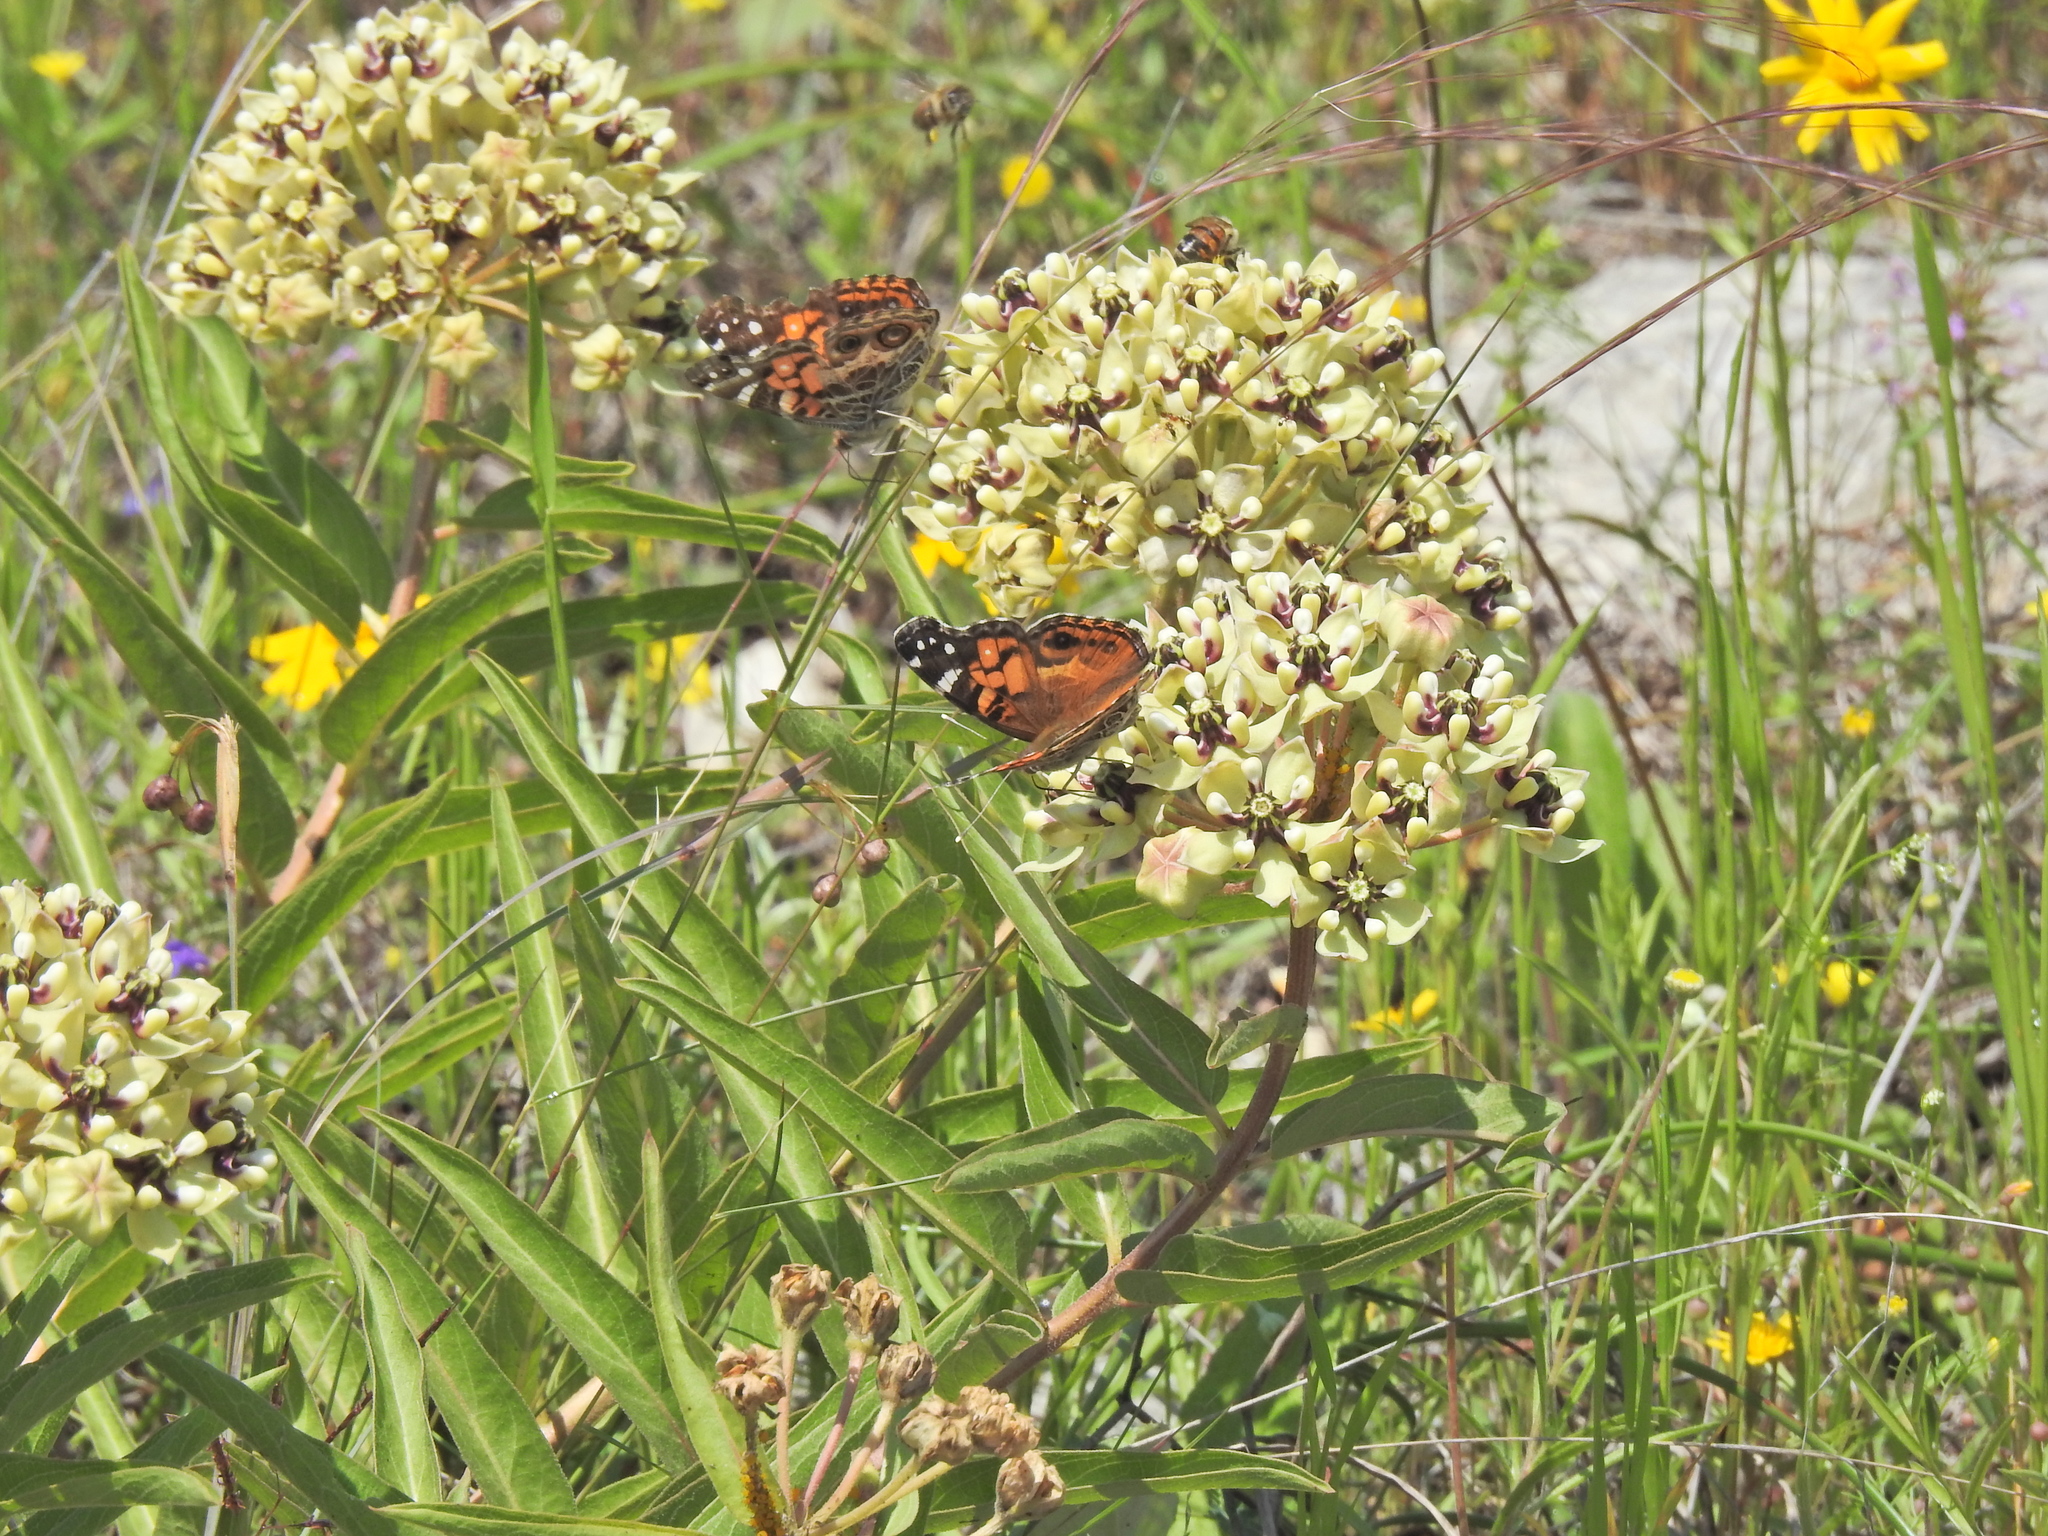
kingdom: Animalia
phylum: Arthropoda
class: Insecta
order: Lepidoptera
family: Nymphalidae
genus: Vanessa
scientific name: Vanessa virginiensis
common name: American lady
